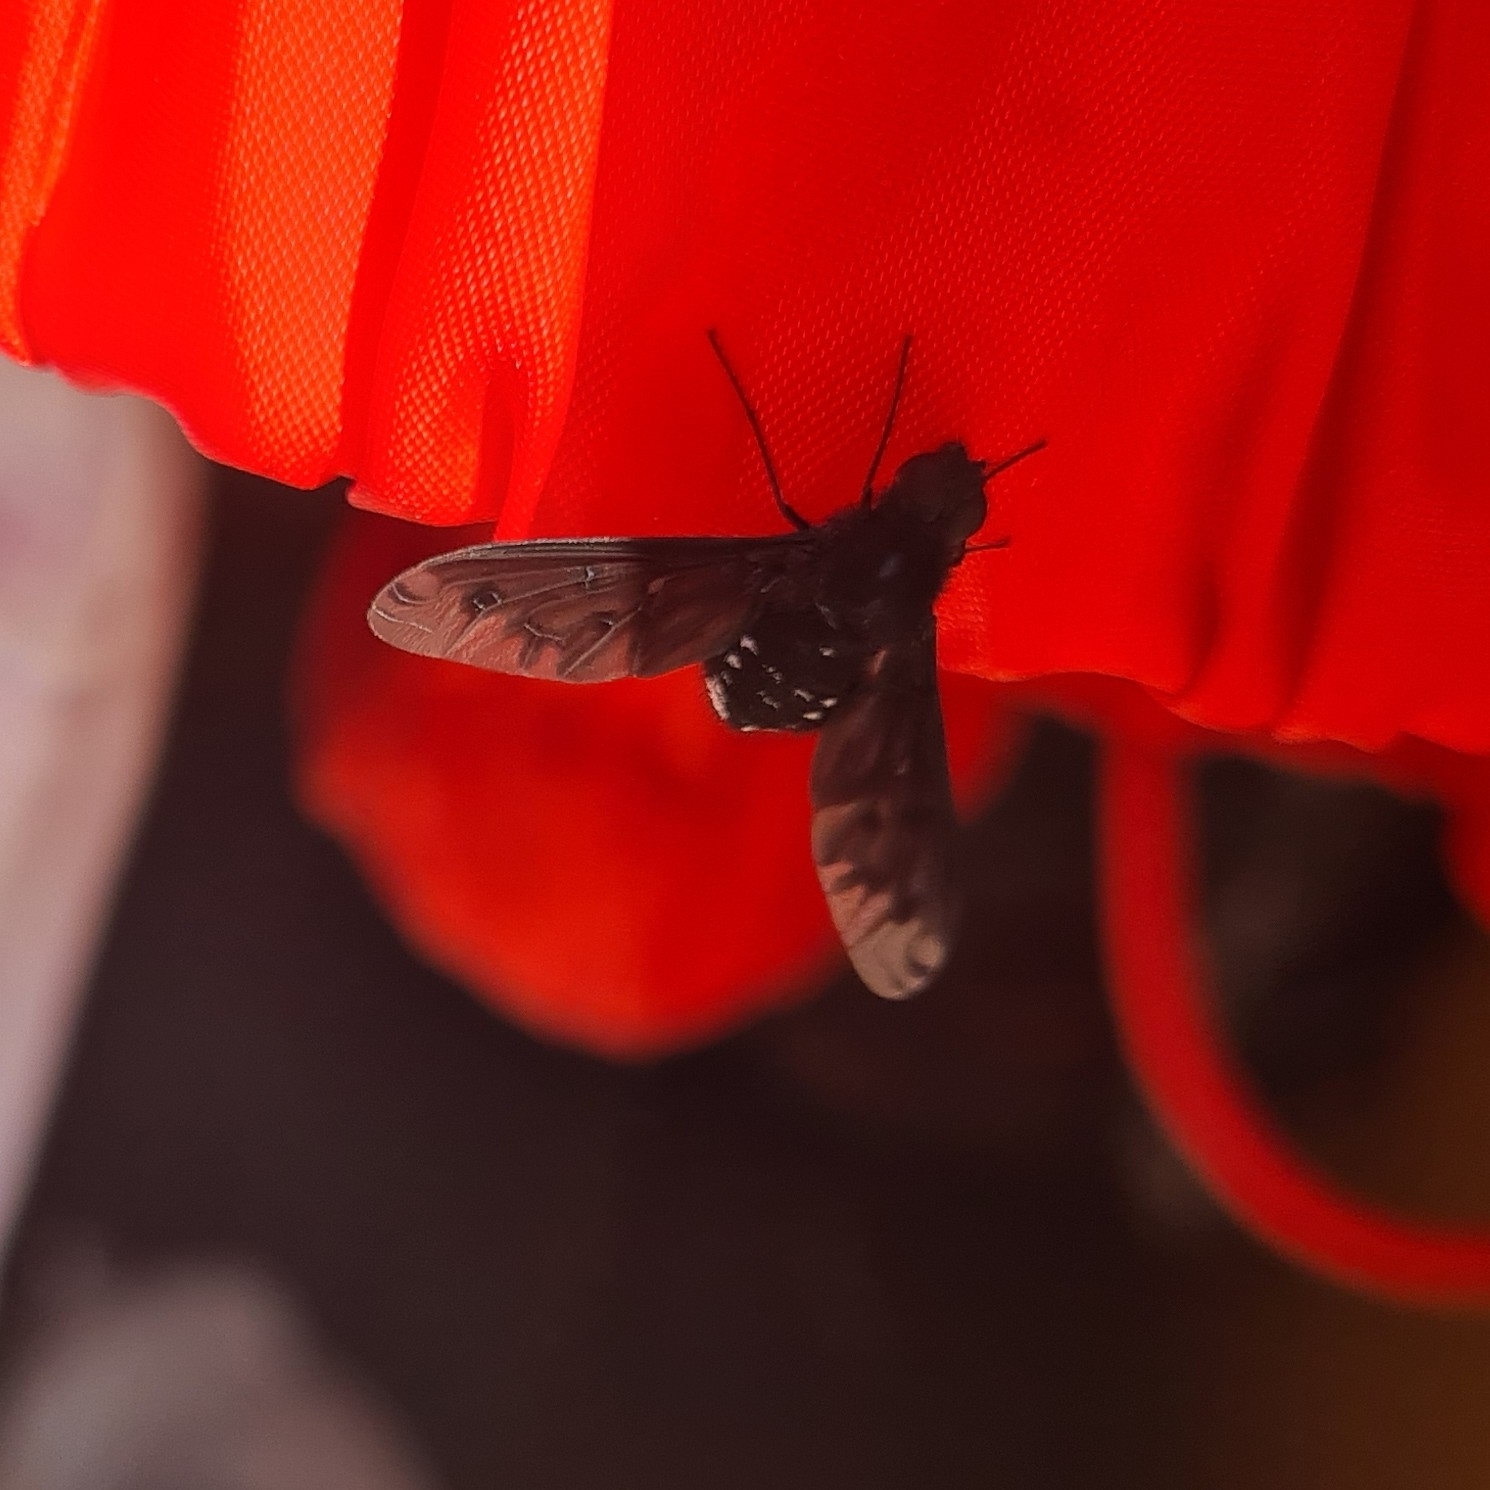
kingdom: Animalia
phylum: Arthropoda
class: Insecta
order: Diptera
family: Bombyliidae
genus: Anthrax
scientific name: Anthrax anthrax
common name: Anthracite bee-fly
